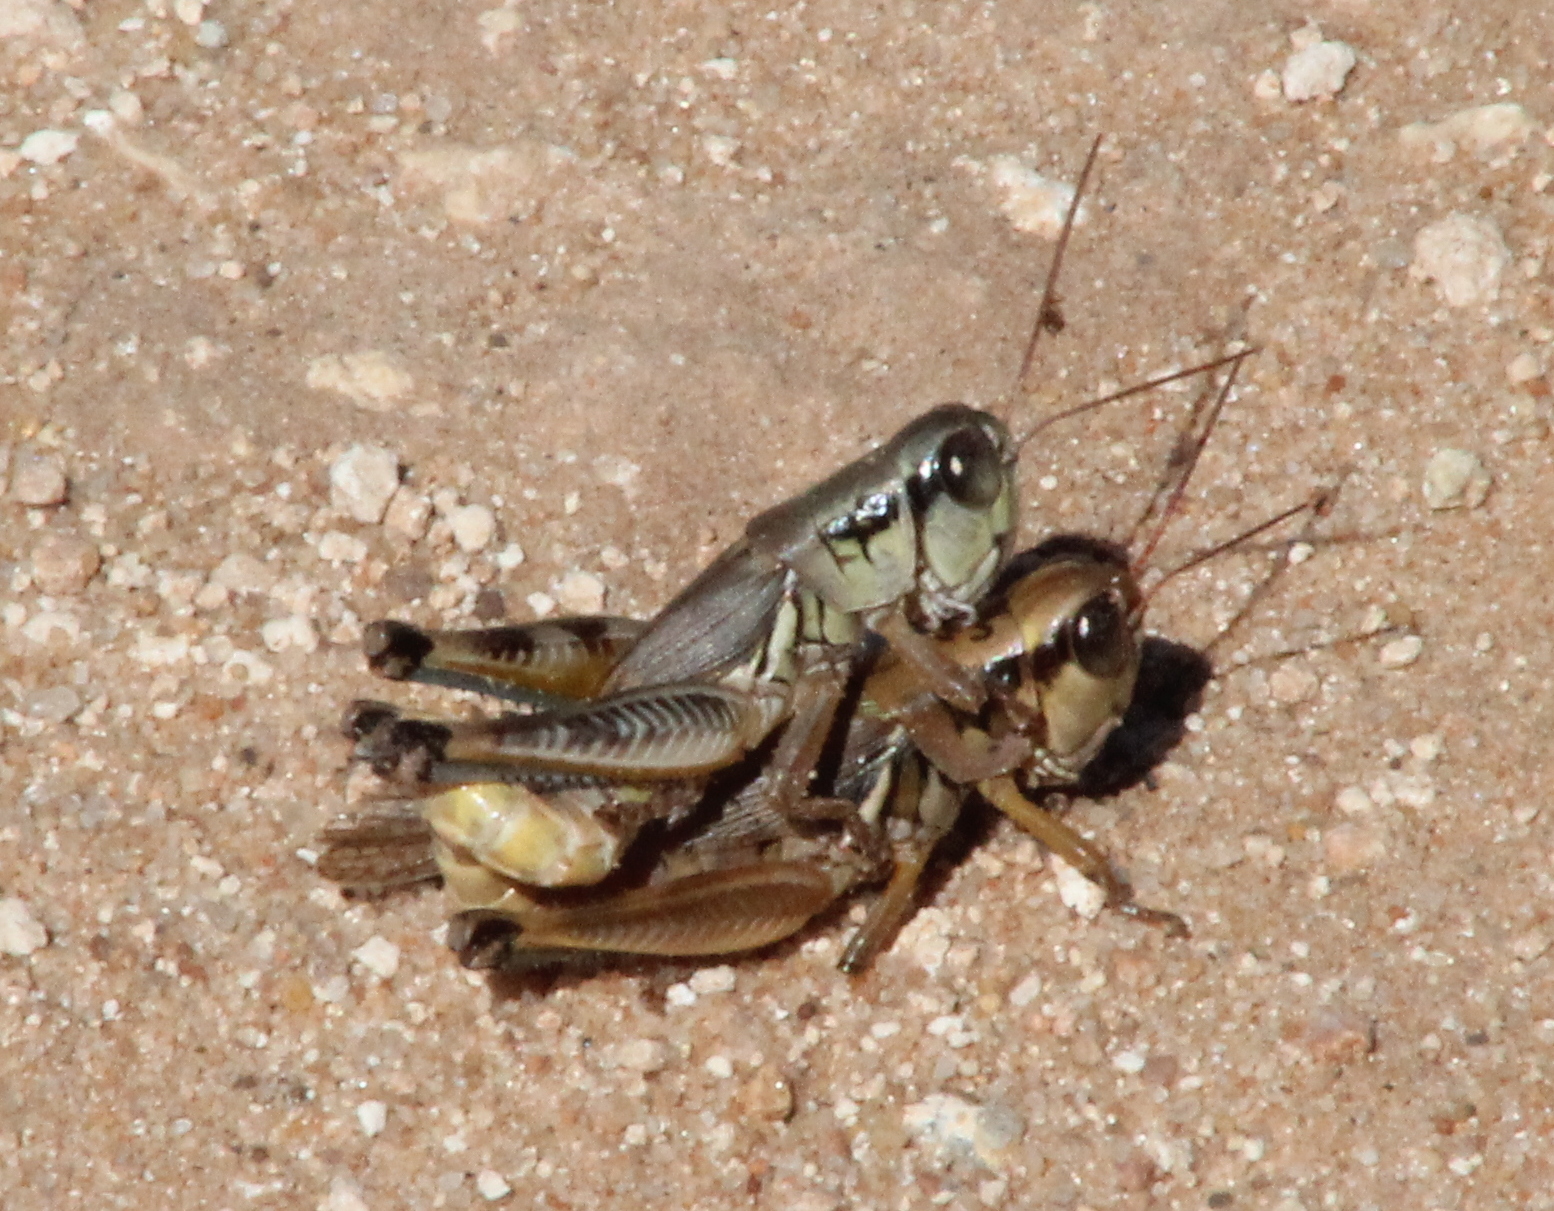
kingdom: Animalia
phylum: Arthropoda
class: Insecta
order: Orthoptera
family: Acrididae
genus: Phoetaliotes
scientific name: Phoetaliotes nebrascensis
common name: Large-headed grasshopper
